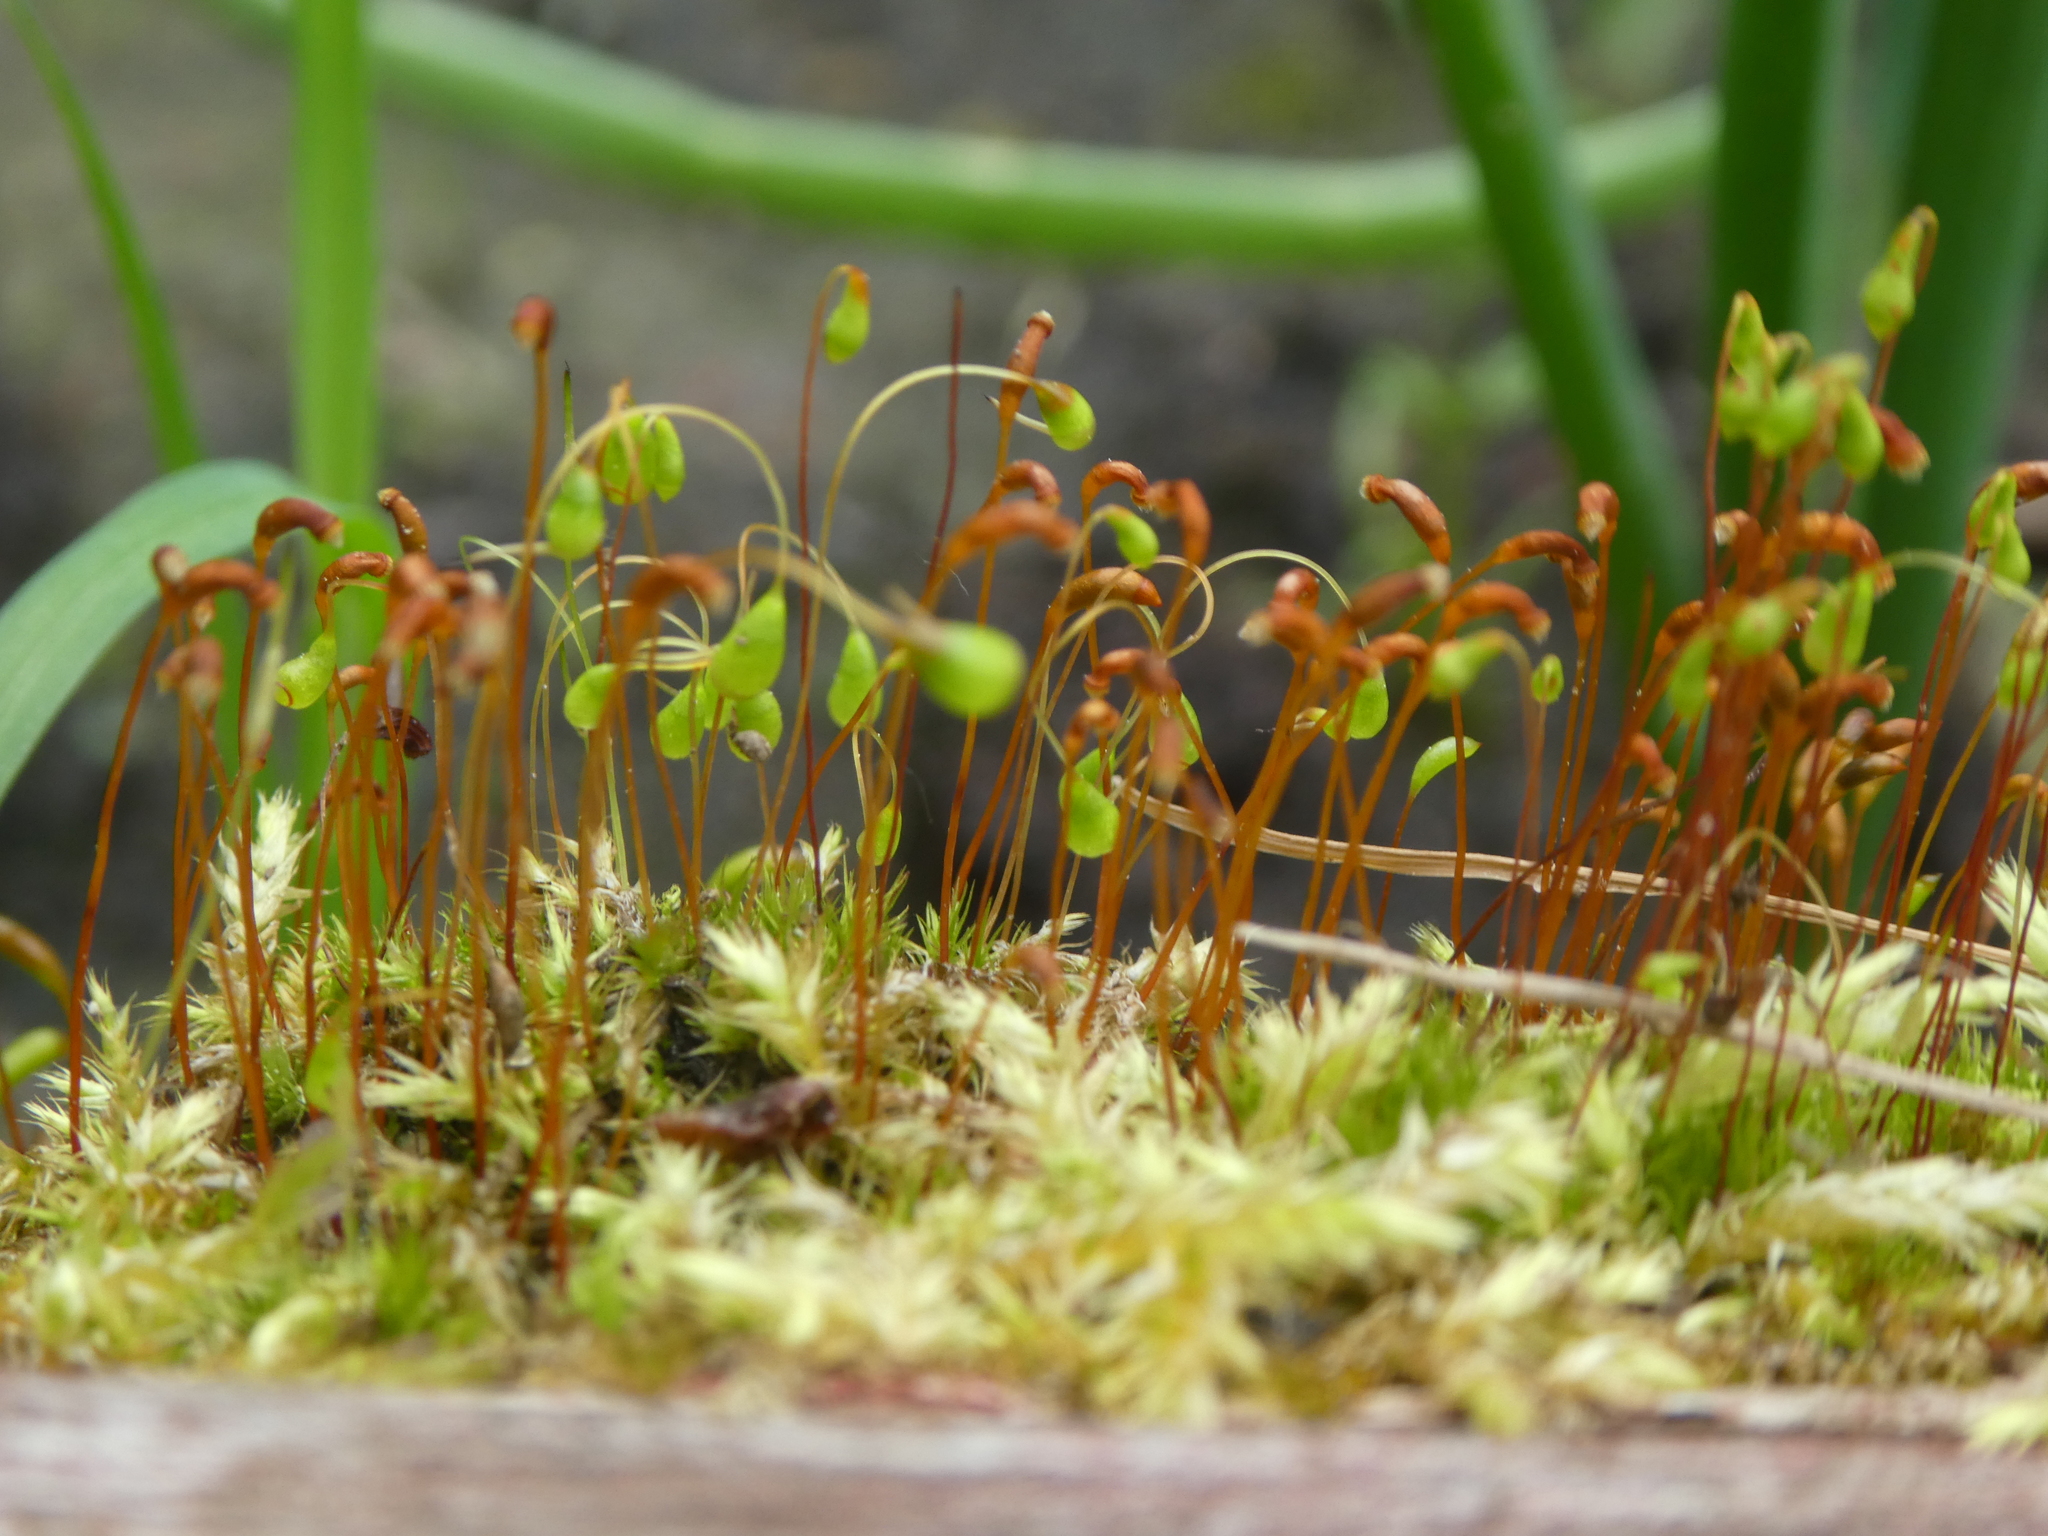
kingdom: Plantae
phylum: Bryophyta
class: Bryopsida
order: Funariales
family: Funariaceae
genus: Funaria
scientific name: Funaria hygrometrica
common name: Common cord moss
